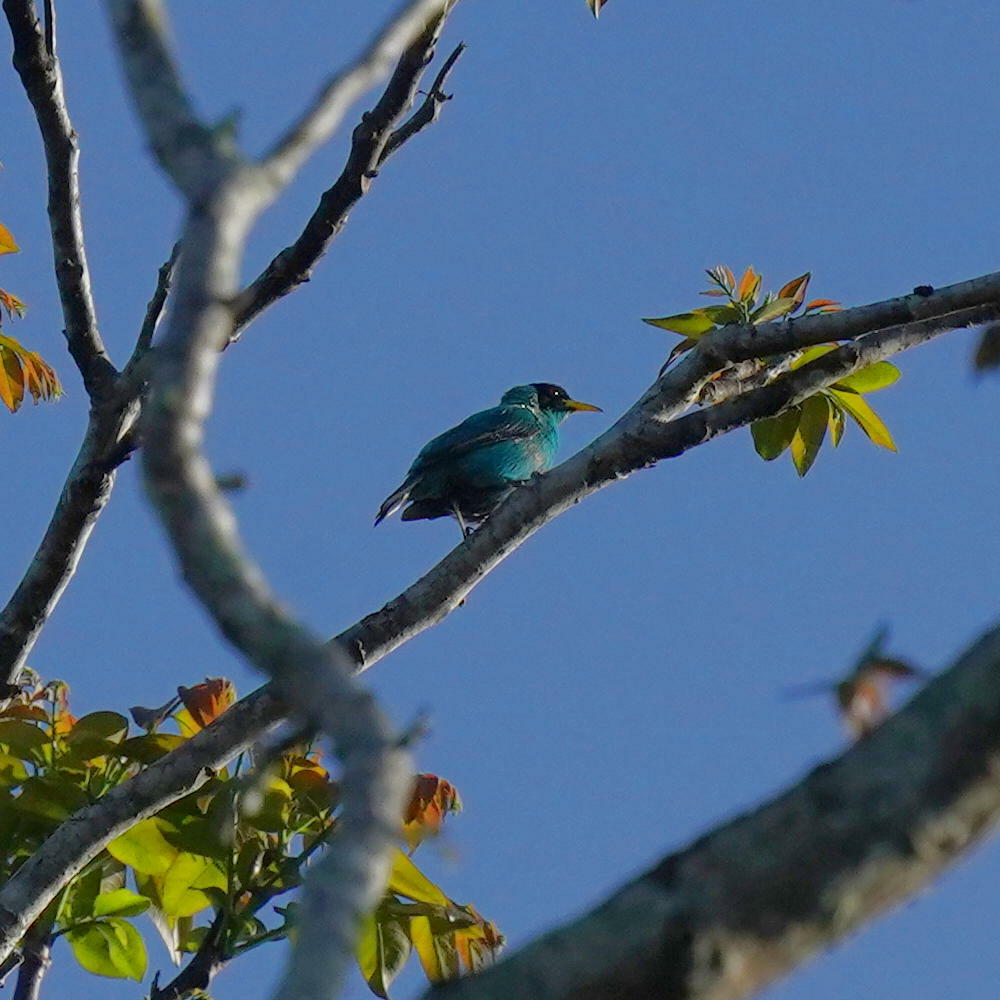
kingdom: Animalia
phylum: Chordata
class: Aves
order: Passeriformes
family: Thraupidae
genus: Chlorophanes
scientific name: Chlorophanes spiza
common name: Green honeycreeper
